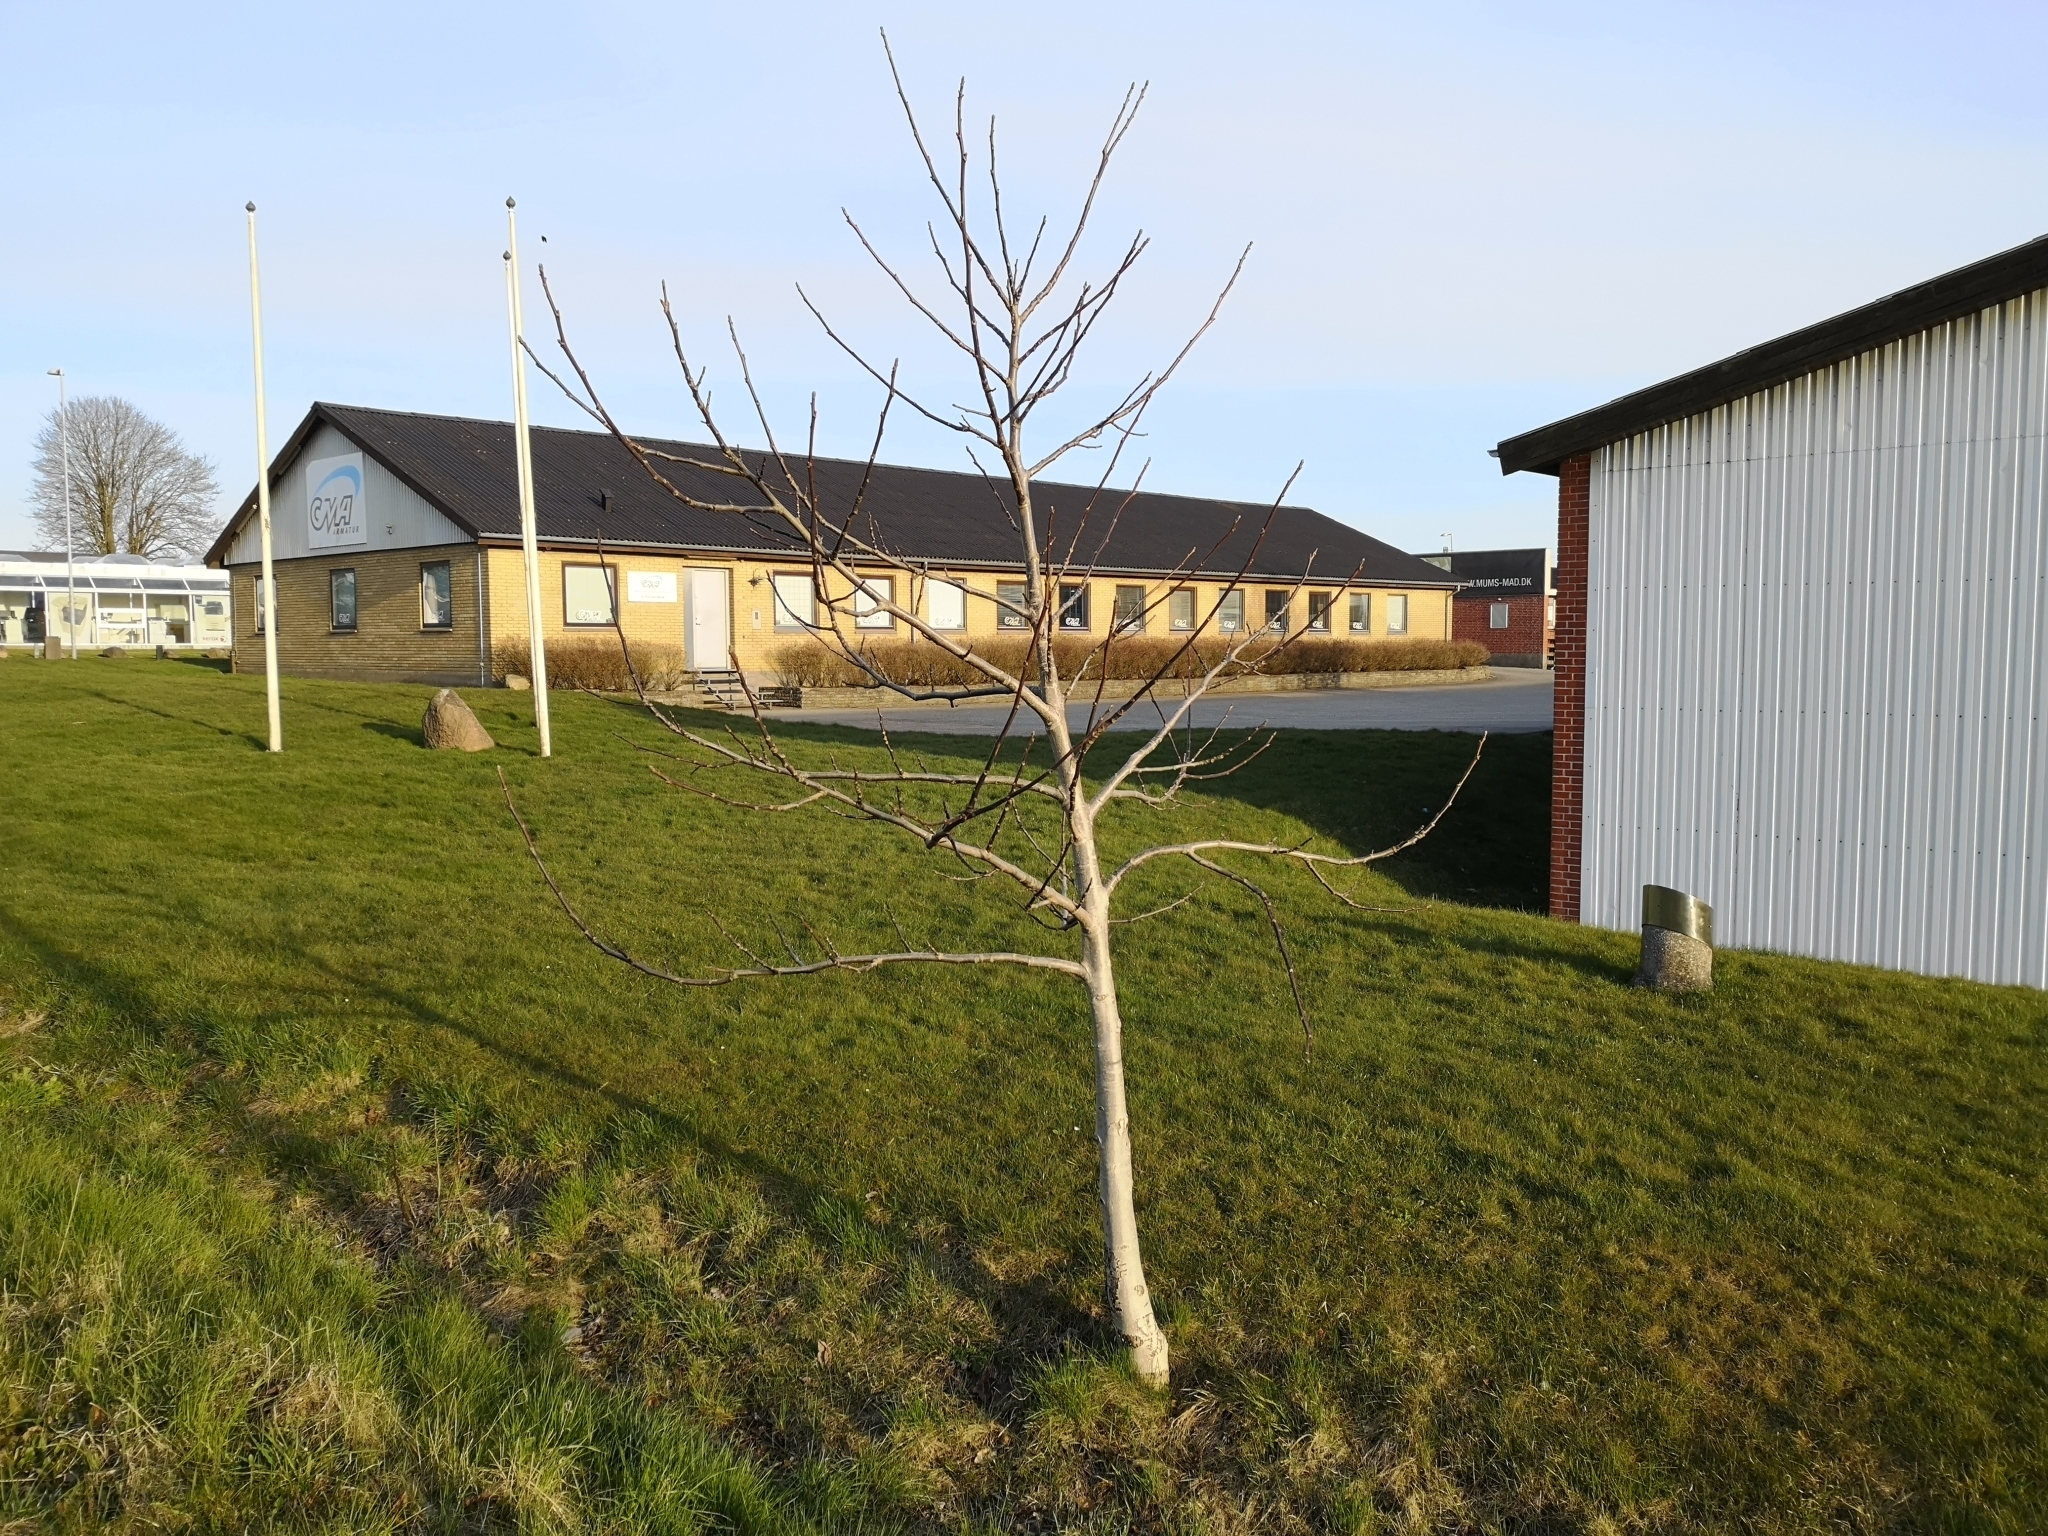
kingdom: Plantae
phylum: Tracheophyta
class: Magnoliopsida
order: Fagales
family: Juglandaceae
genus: Juglans
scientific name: Juglans regia
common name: Walnut
